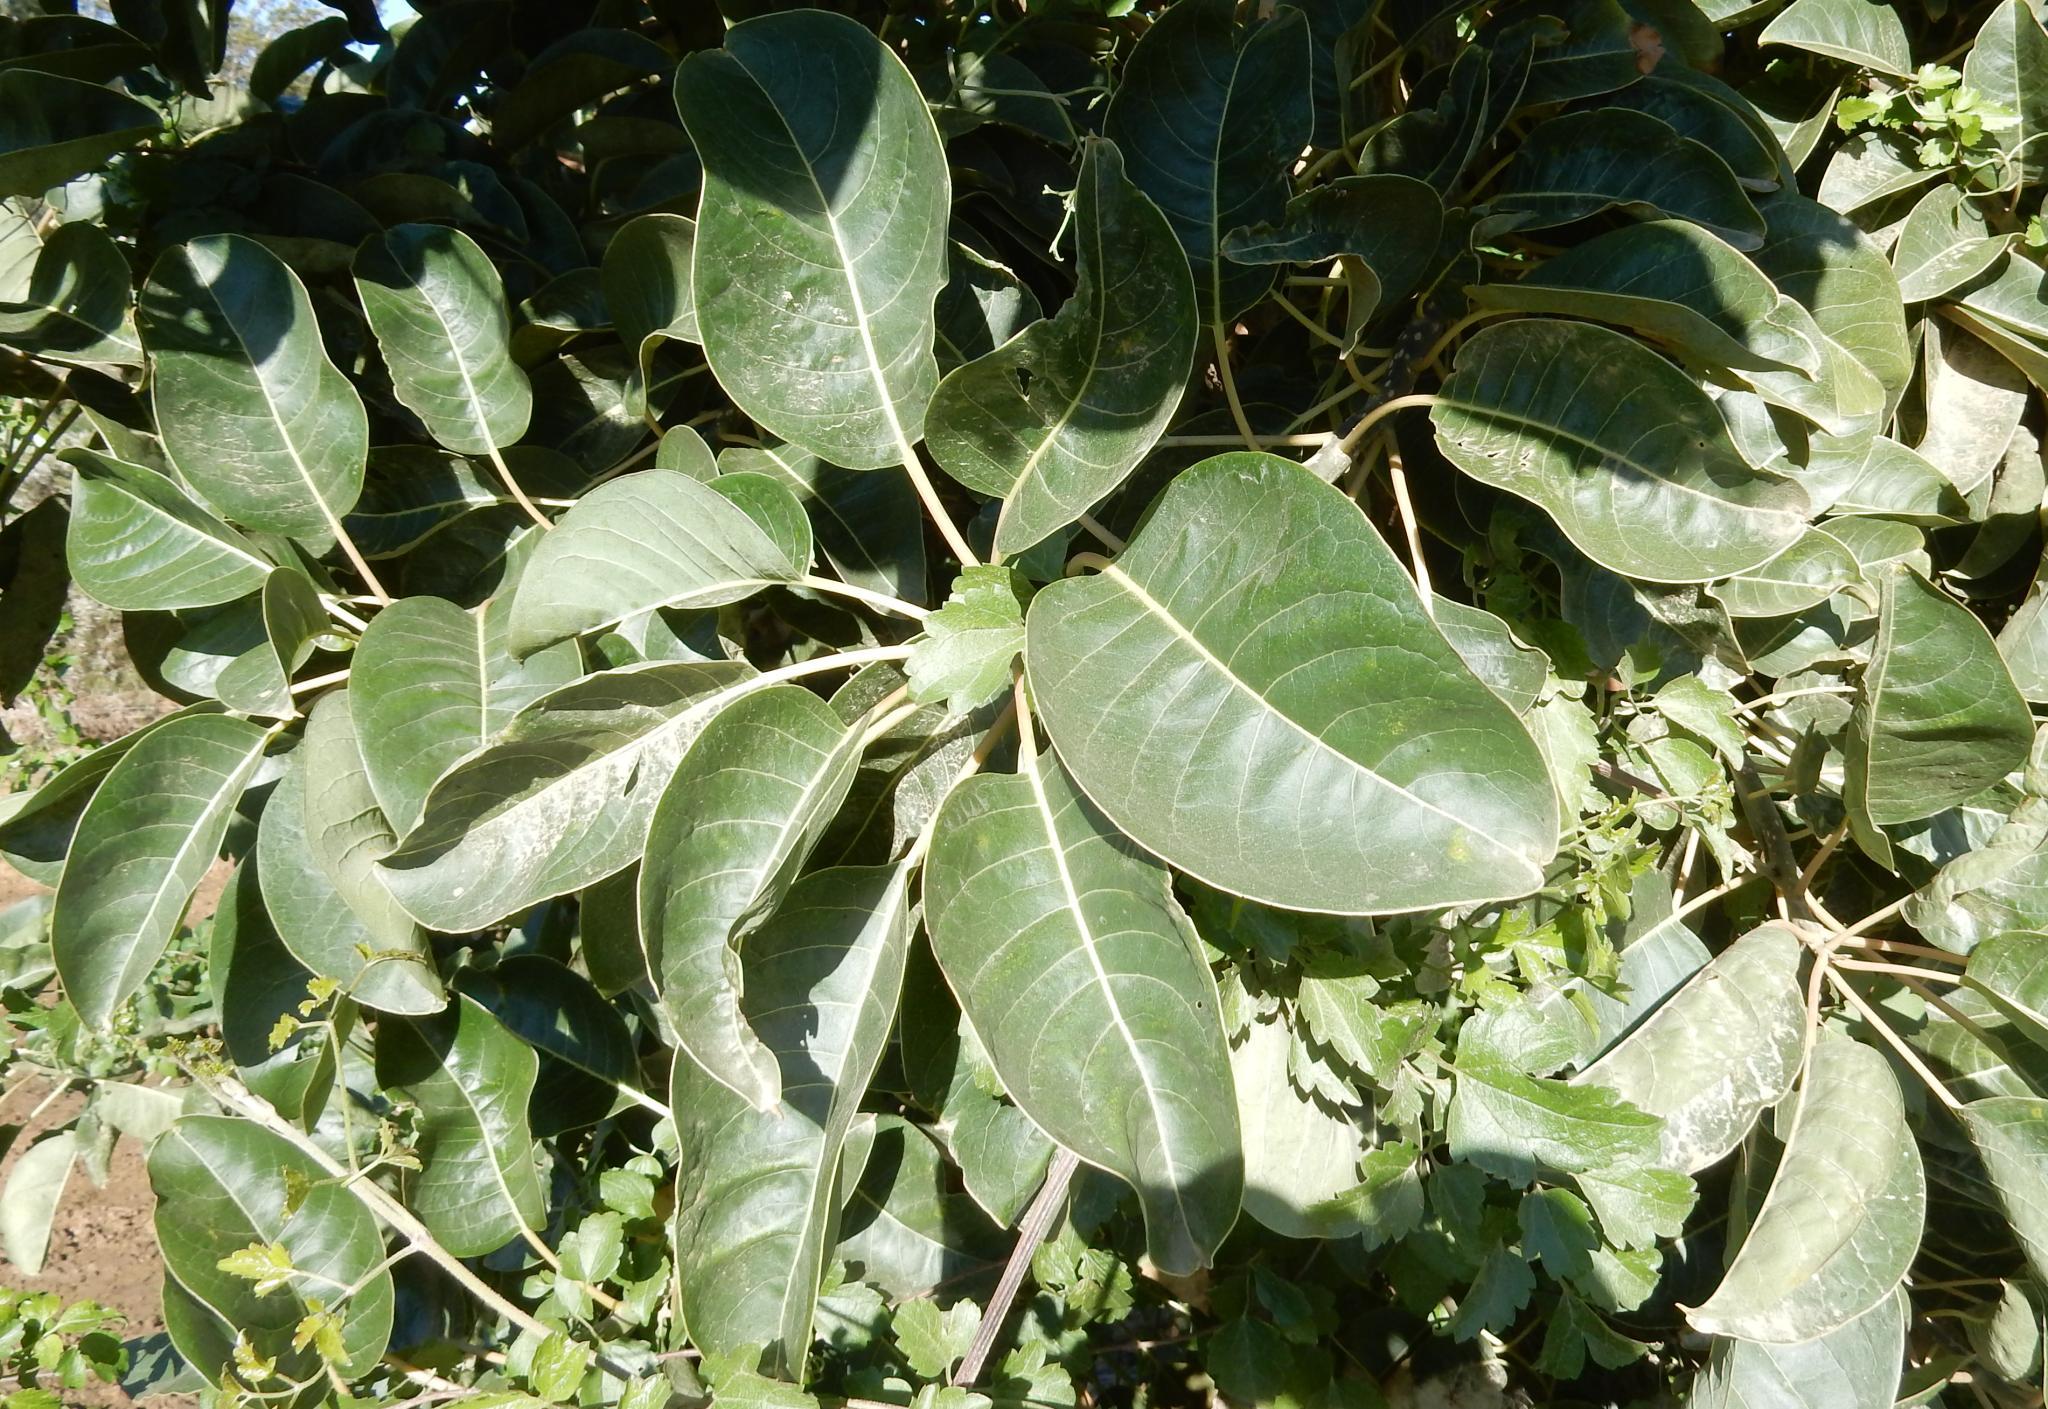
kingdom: Plantae
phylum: Tracheophyta
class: Magnoliopsida
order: Caryophyllales
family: Phytolaccaceae
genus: Phytolacca
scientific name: Phytolacca dioica
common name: Pokeweed
